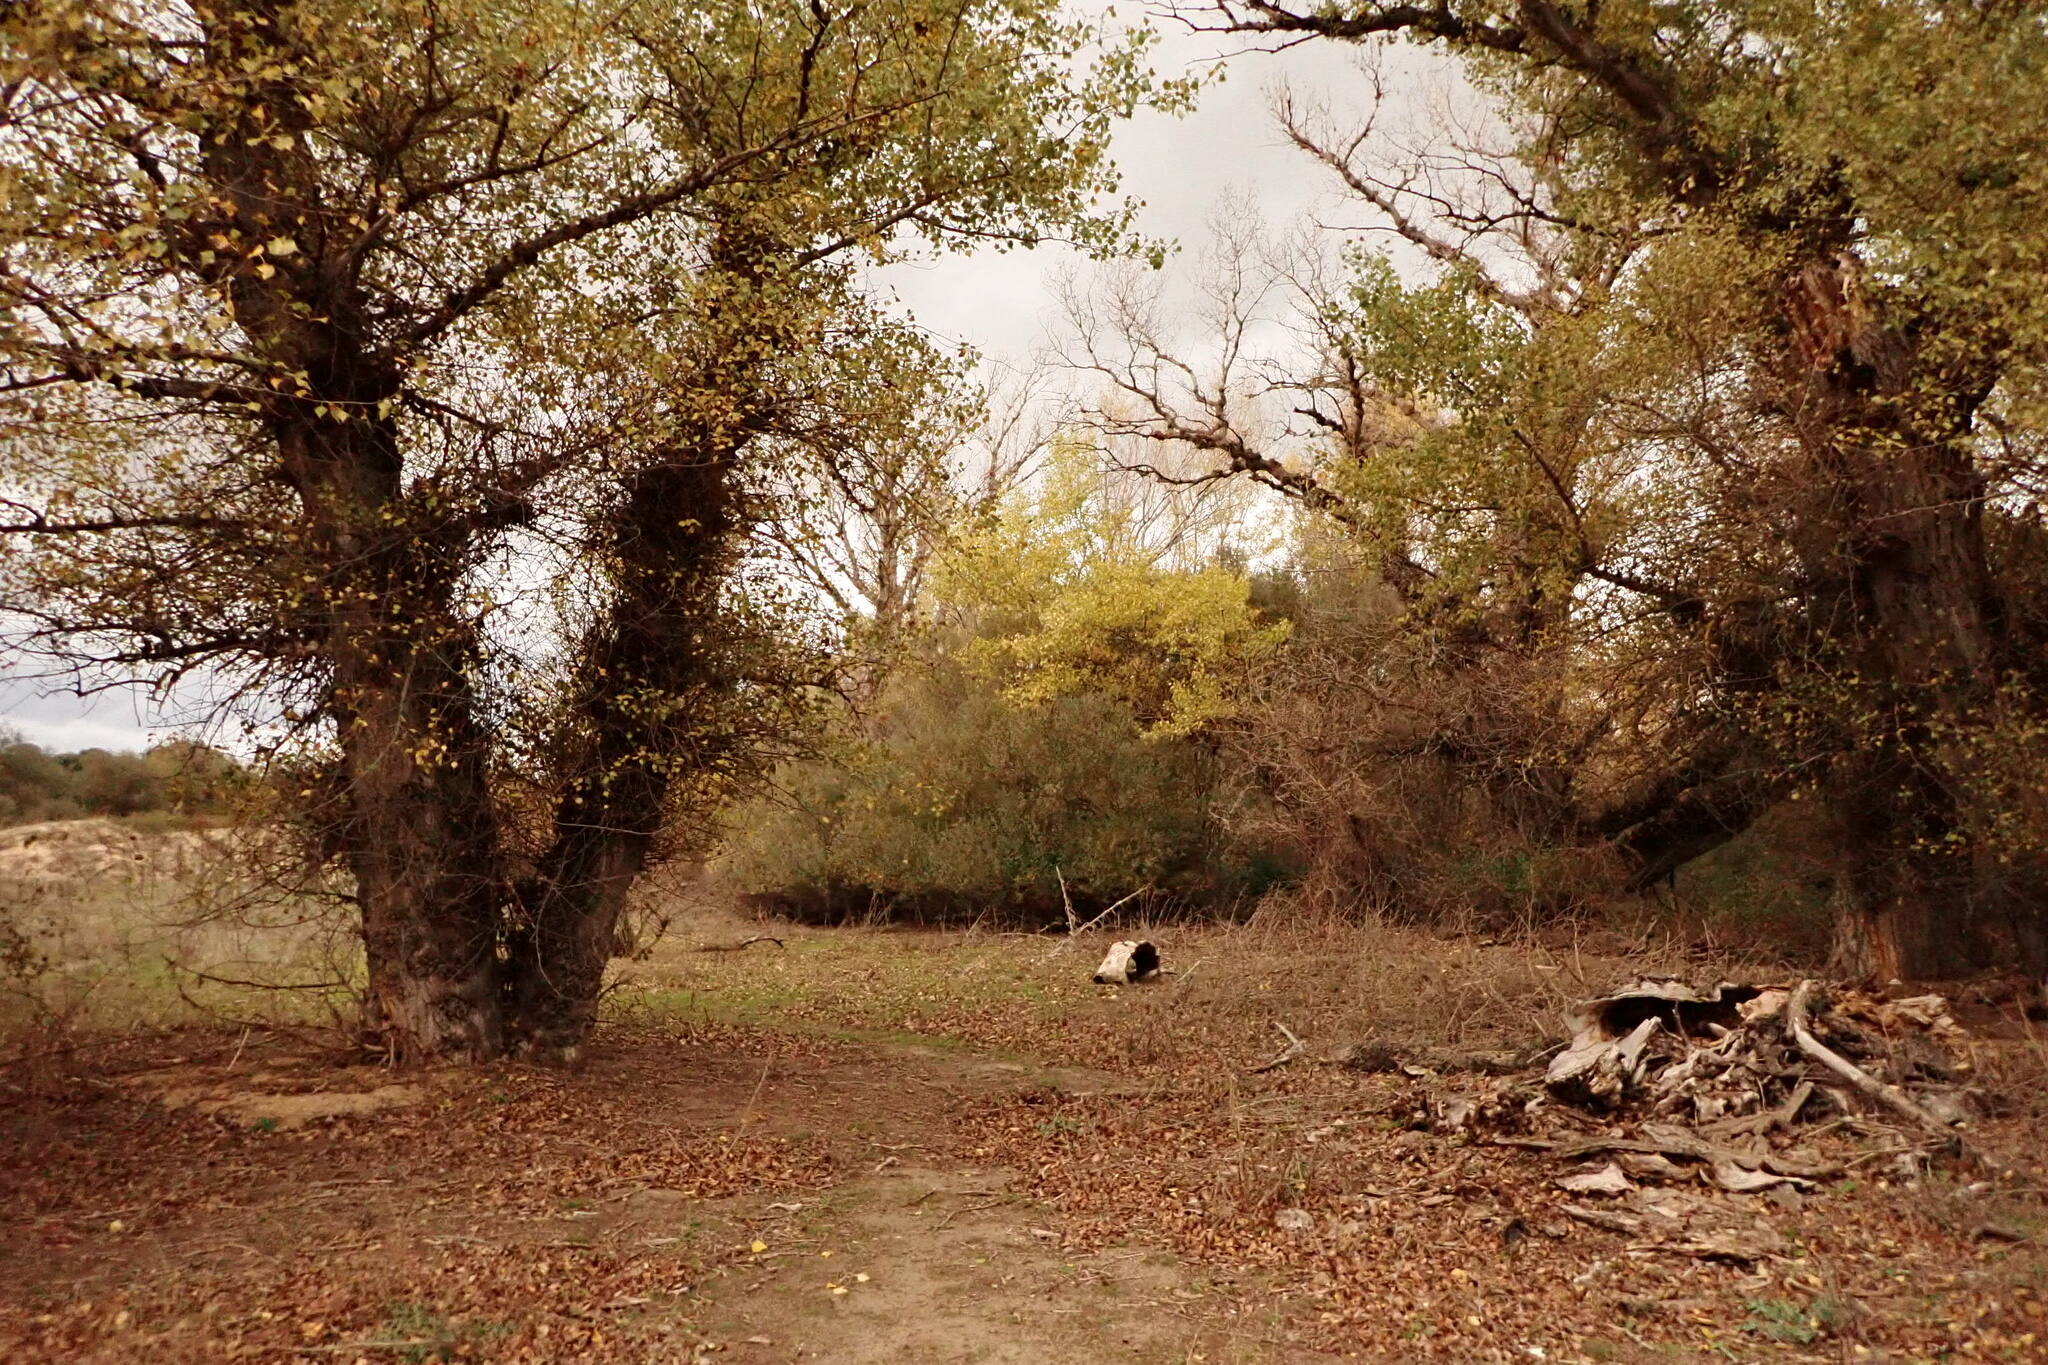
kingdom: Plantae
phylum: Tracheophyta
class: Magnoliopsida
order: Malpighiales
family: Salicaceae
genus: Populus
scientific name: Populus nigra
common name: Black poplar
